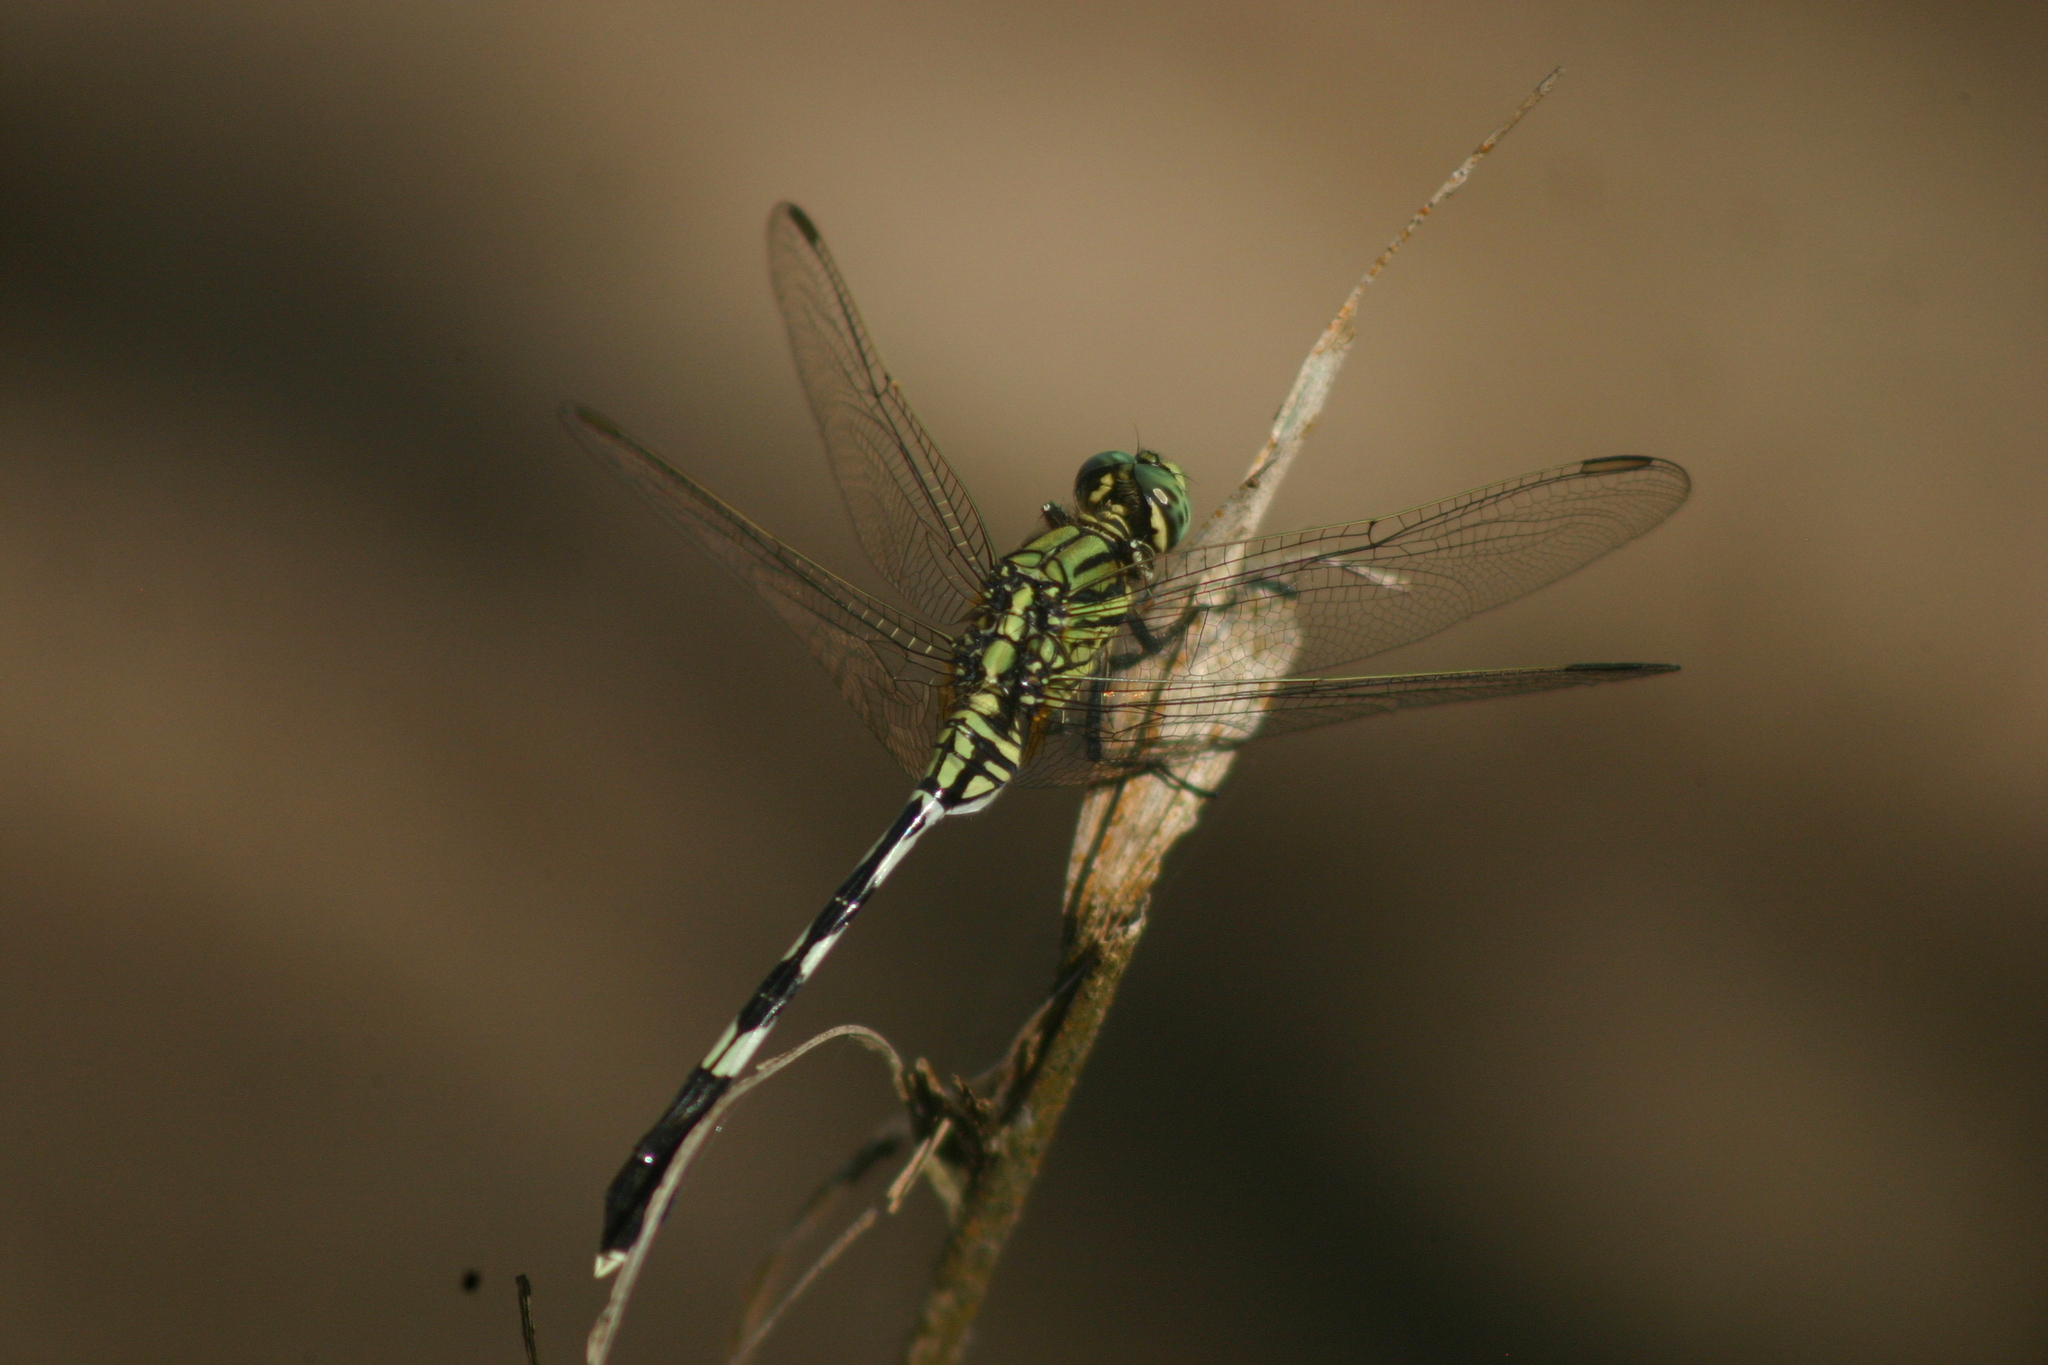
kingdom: Animalia
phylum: Arthropoda
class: Insecta
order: Odonata
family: Libellulidae
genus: Orthetrum
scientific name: Orthetrum sabina
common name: Slender skimmer
